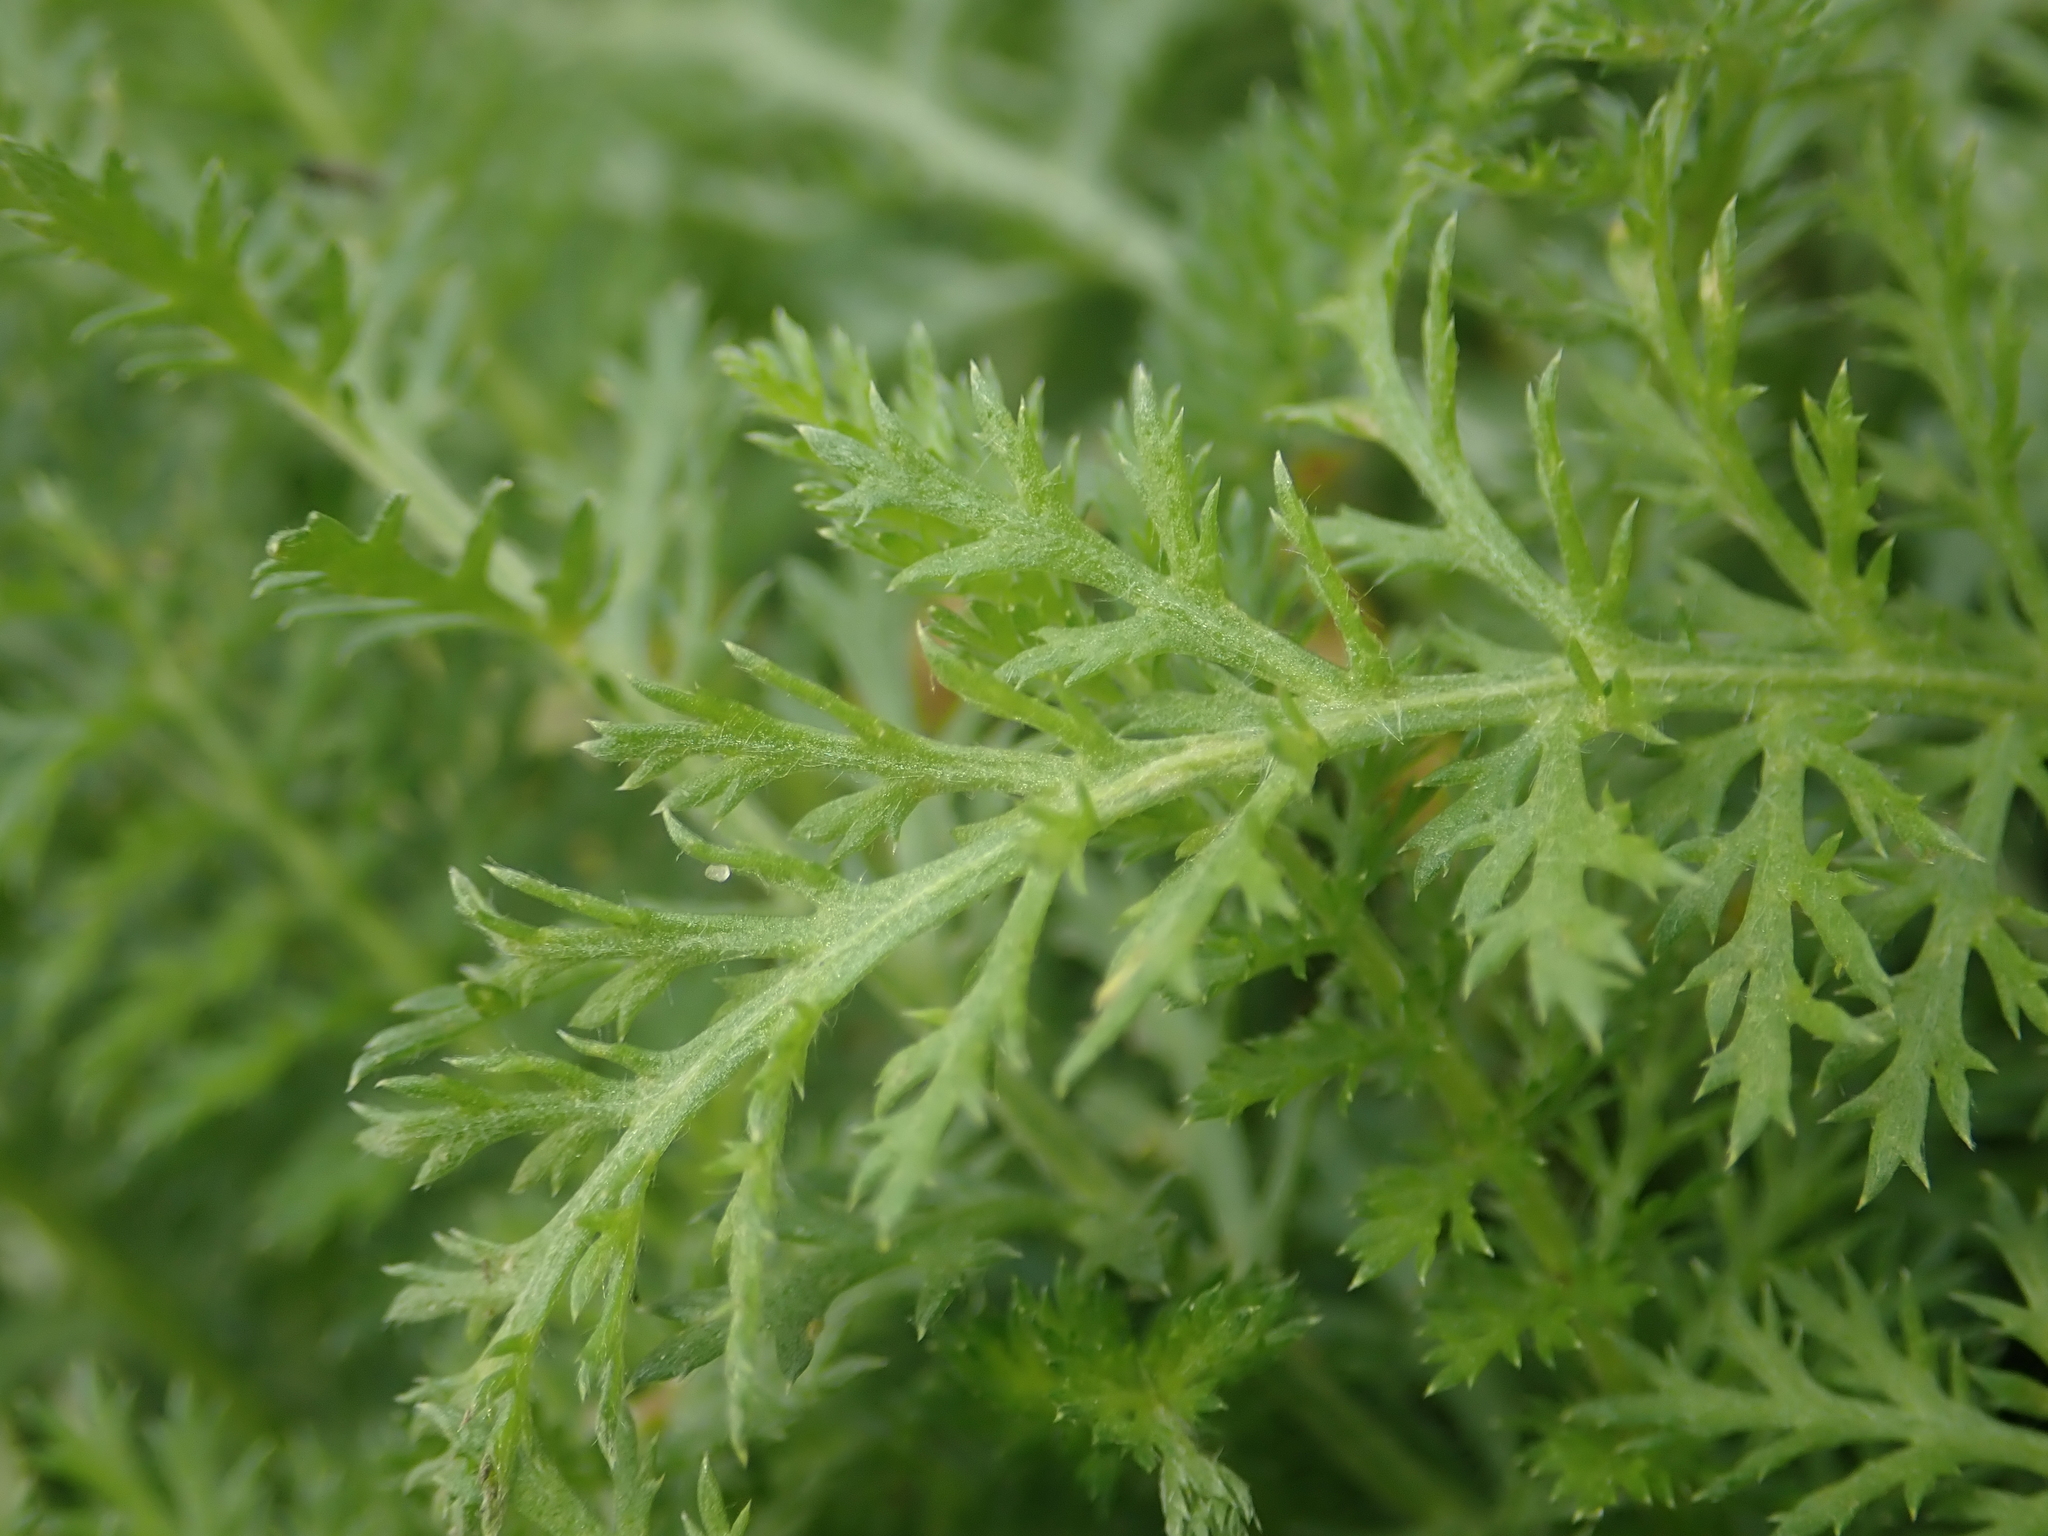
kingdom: Plantae
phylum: Tracheophyta
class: Magnoliopsida
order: Asterales
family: Asteraceae
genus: Achillea
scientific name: Achillea millefolium
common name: Yarrow
